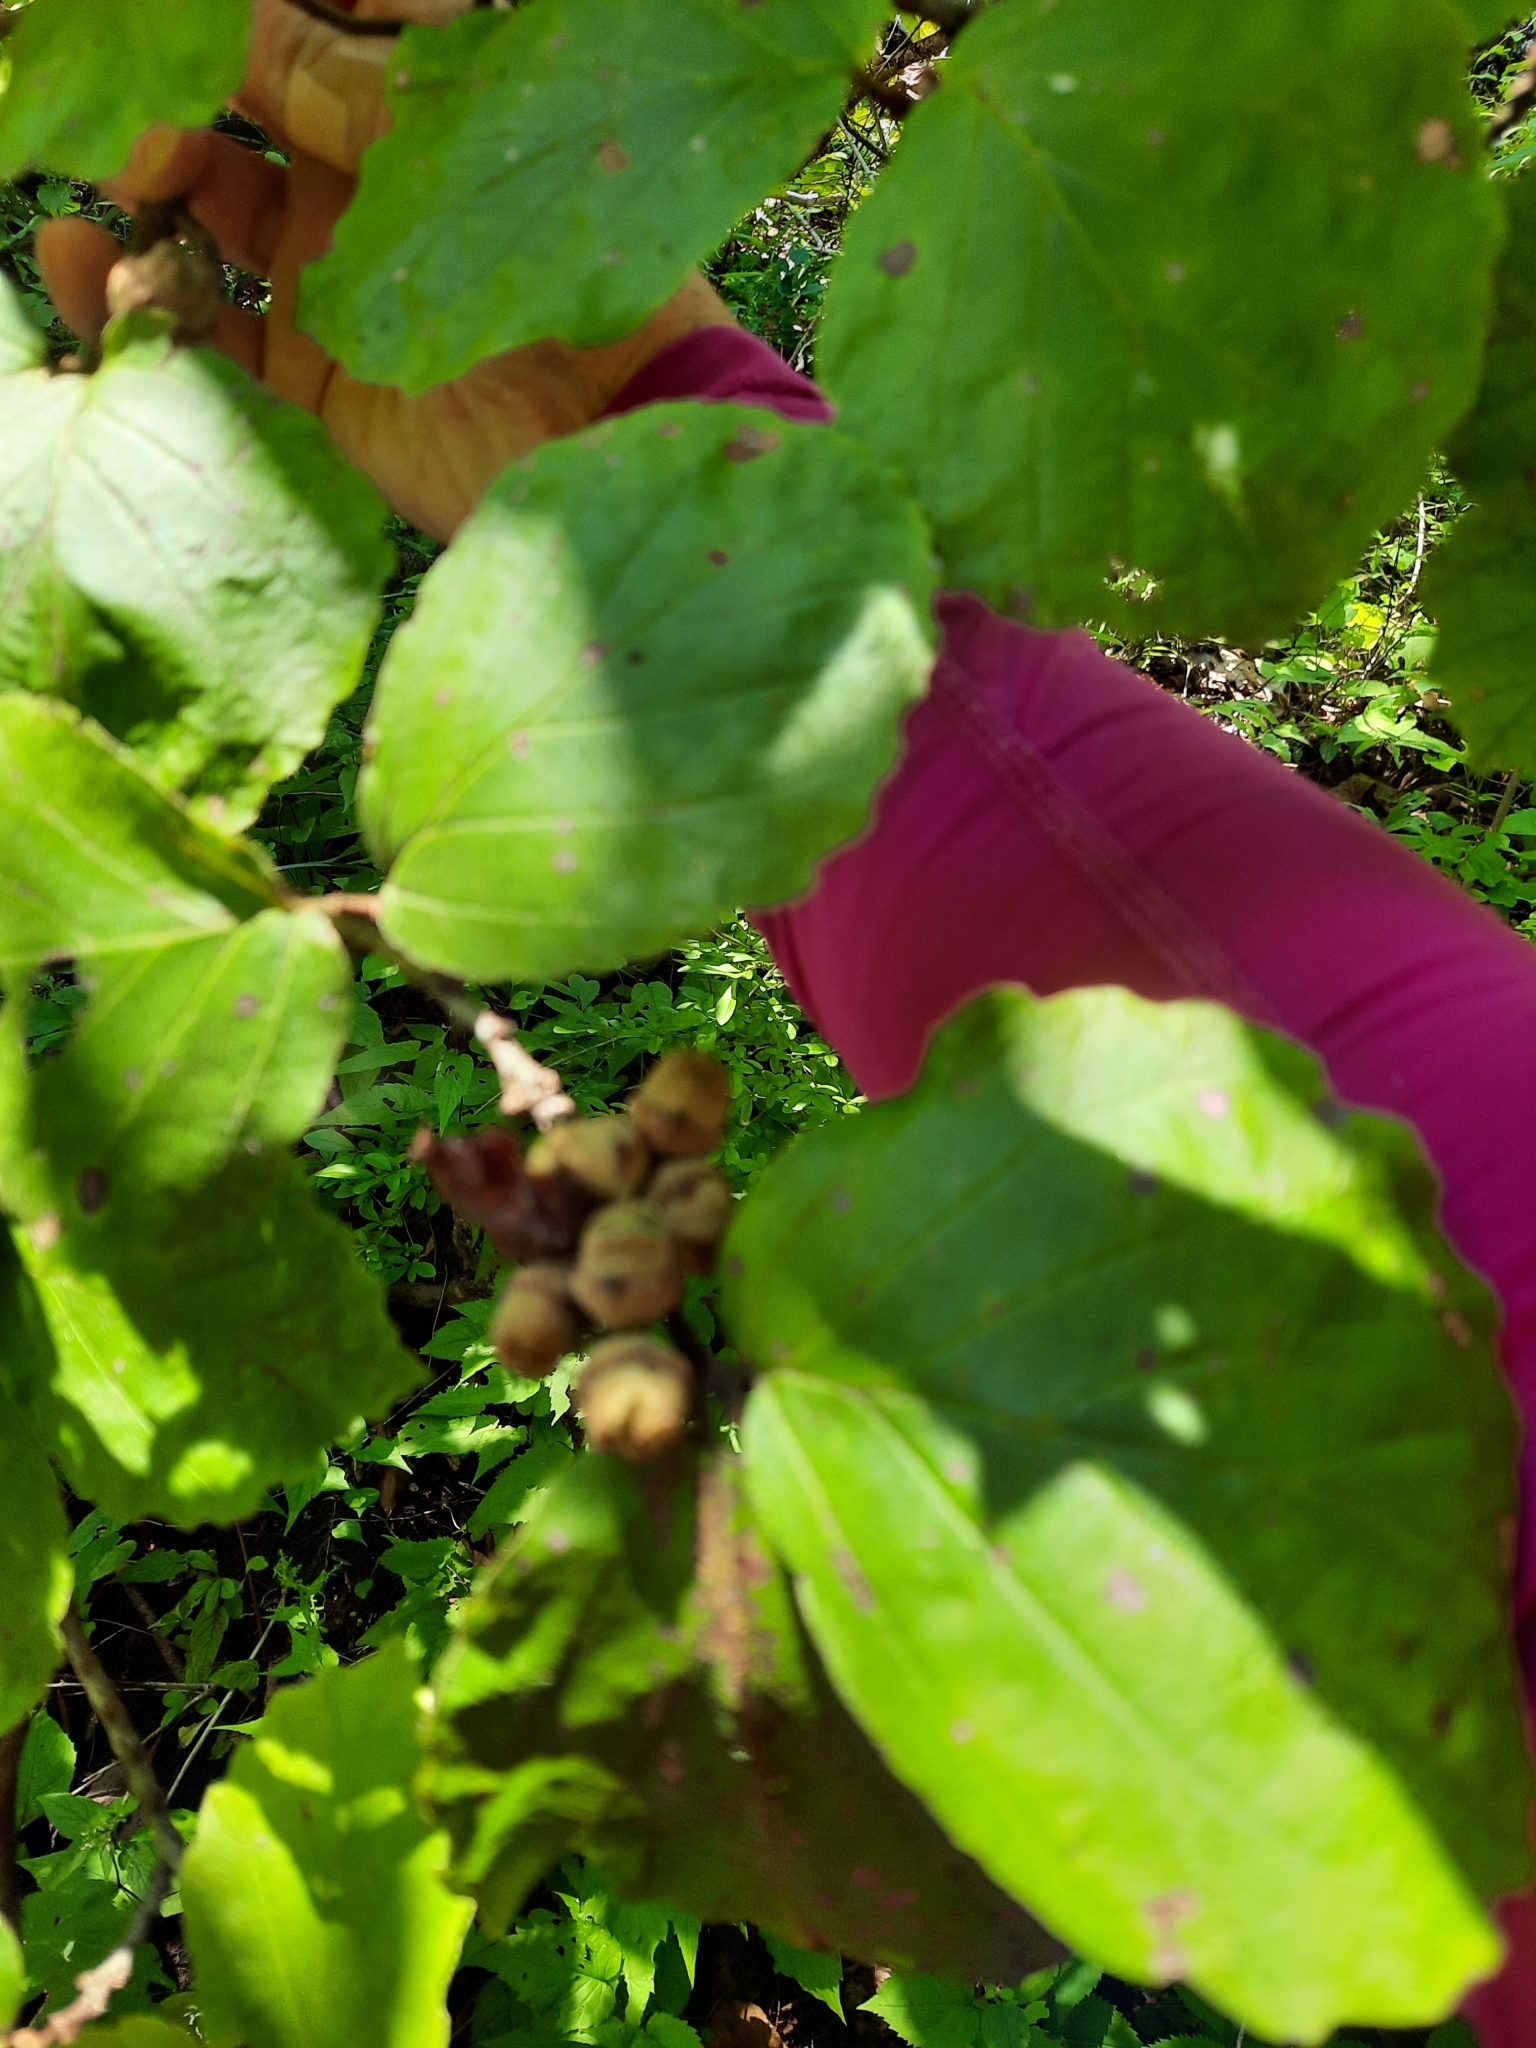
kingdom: Plantae
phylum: Tracheophyta
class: Magnoliopsida
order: Saxifragales
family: Hamamelidaceae
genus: Hamamelis
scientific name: Hamamelis virginiana
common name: Witch-hazel
